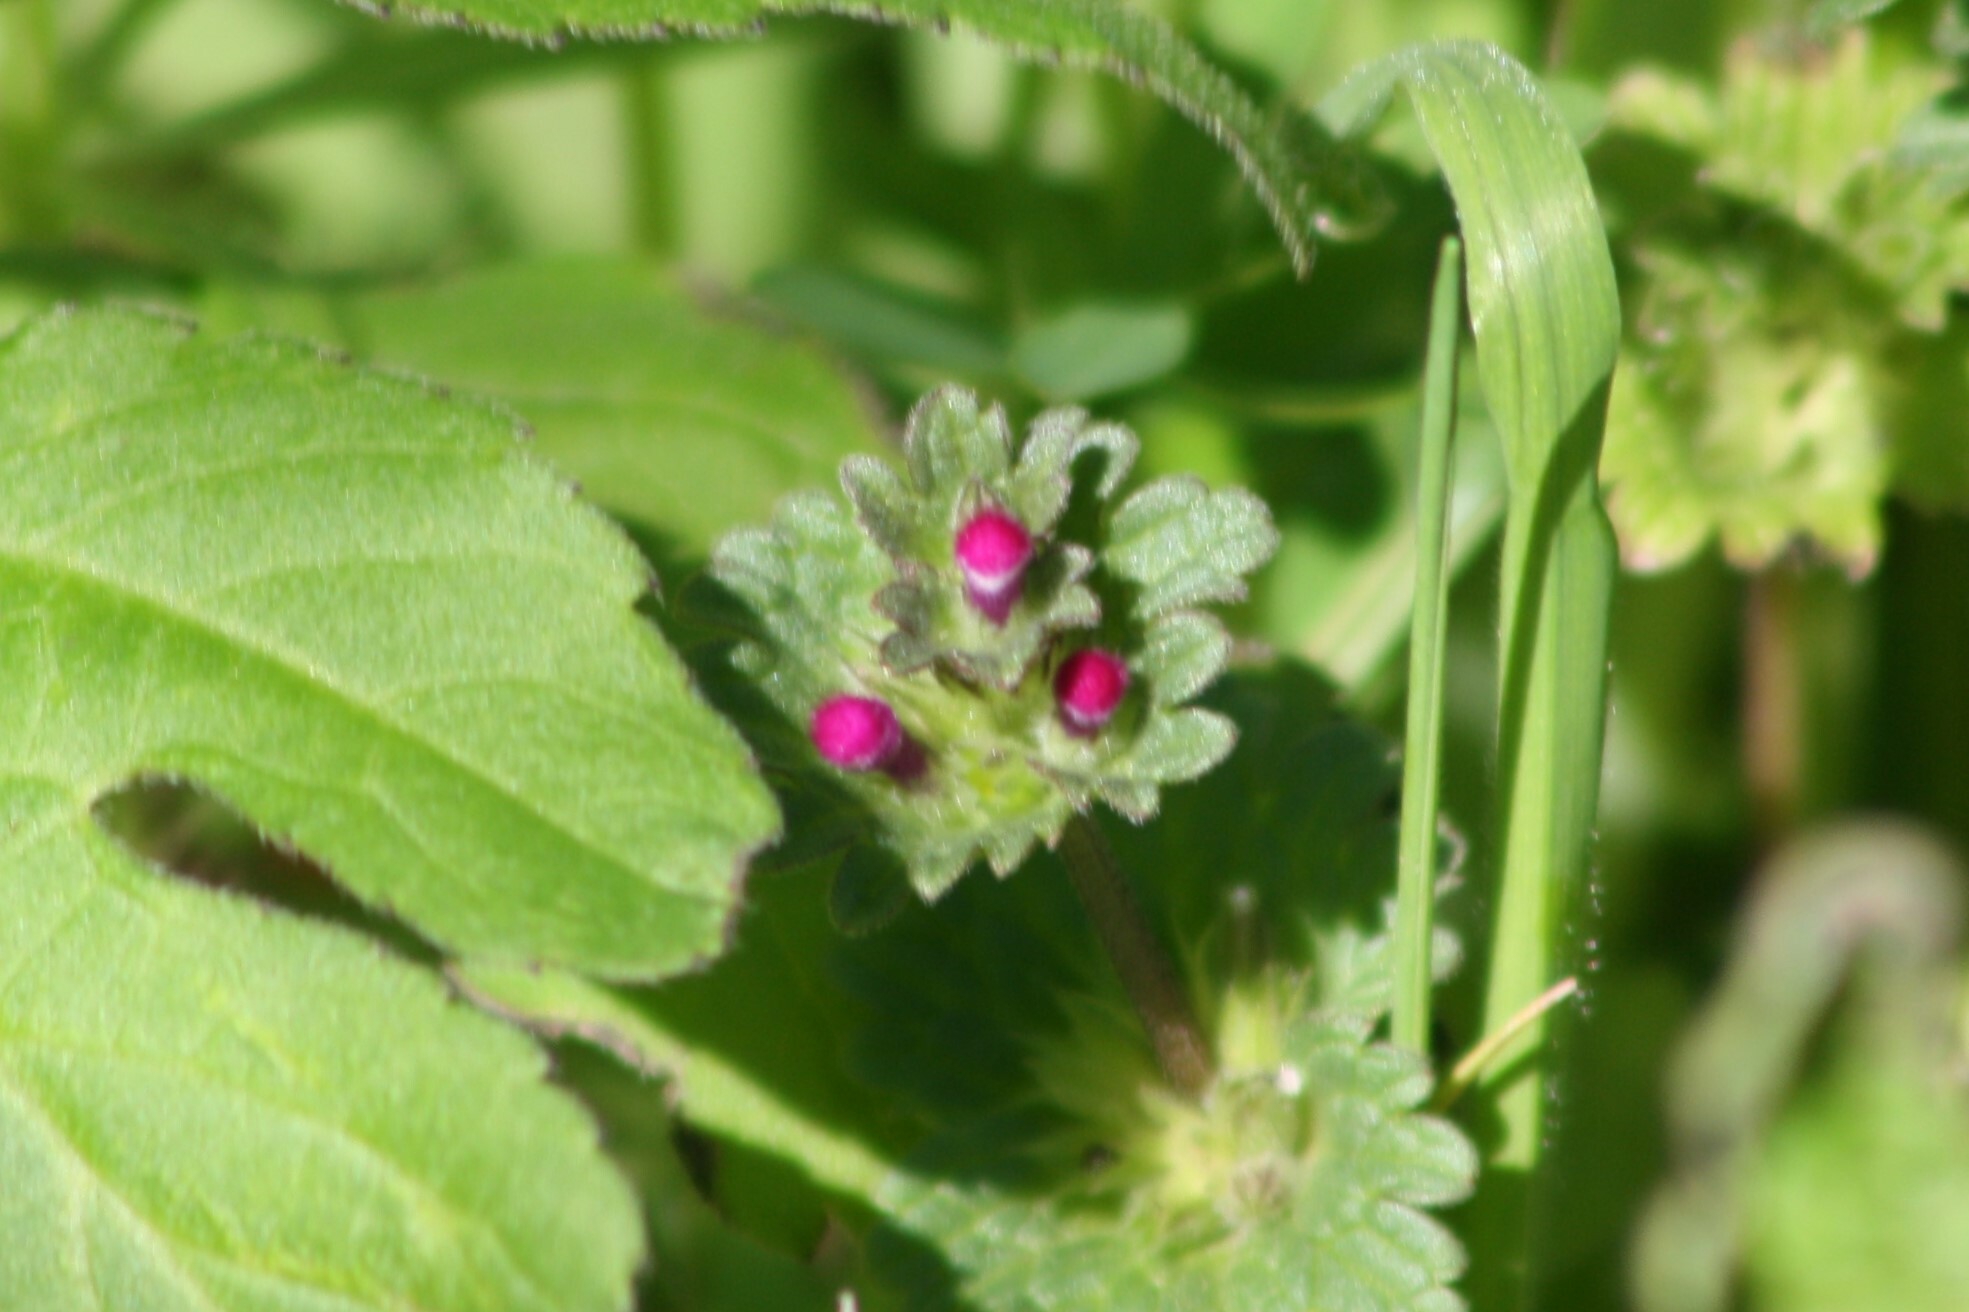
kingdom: Plantae
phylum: Tracheophyta
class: Magnoliopsida
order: Lamiales
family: Lamiaceae
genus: Lamium
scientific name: Lamium amplexicaule
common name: Henbit dead-nettle
